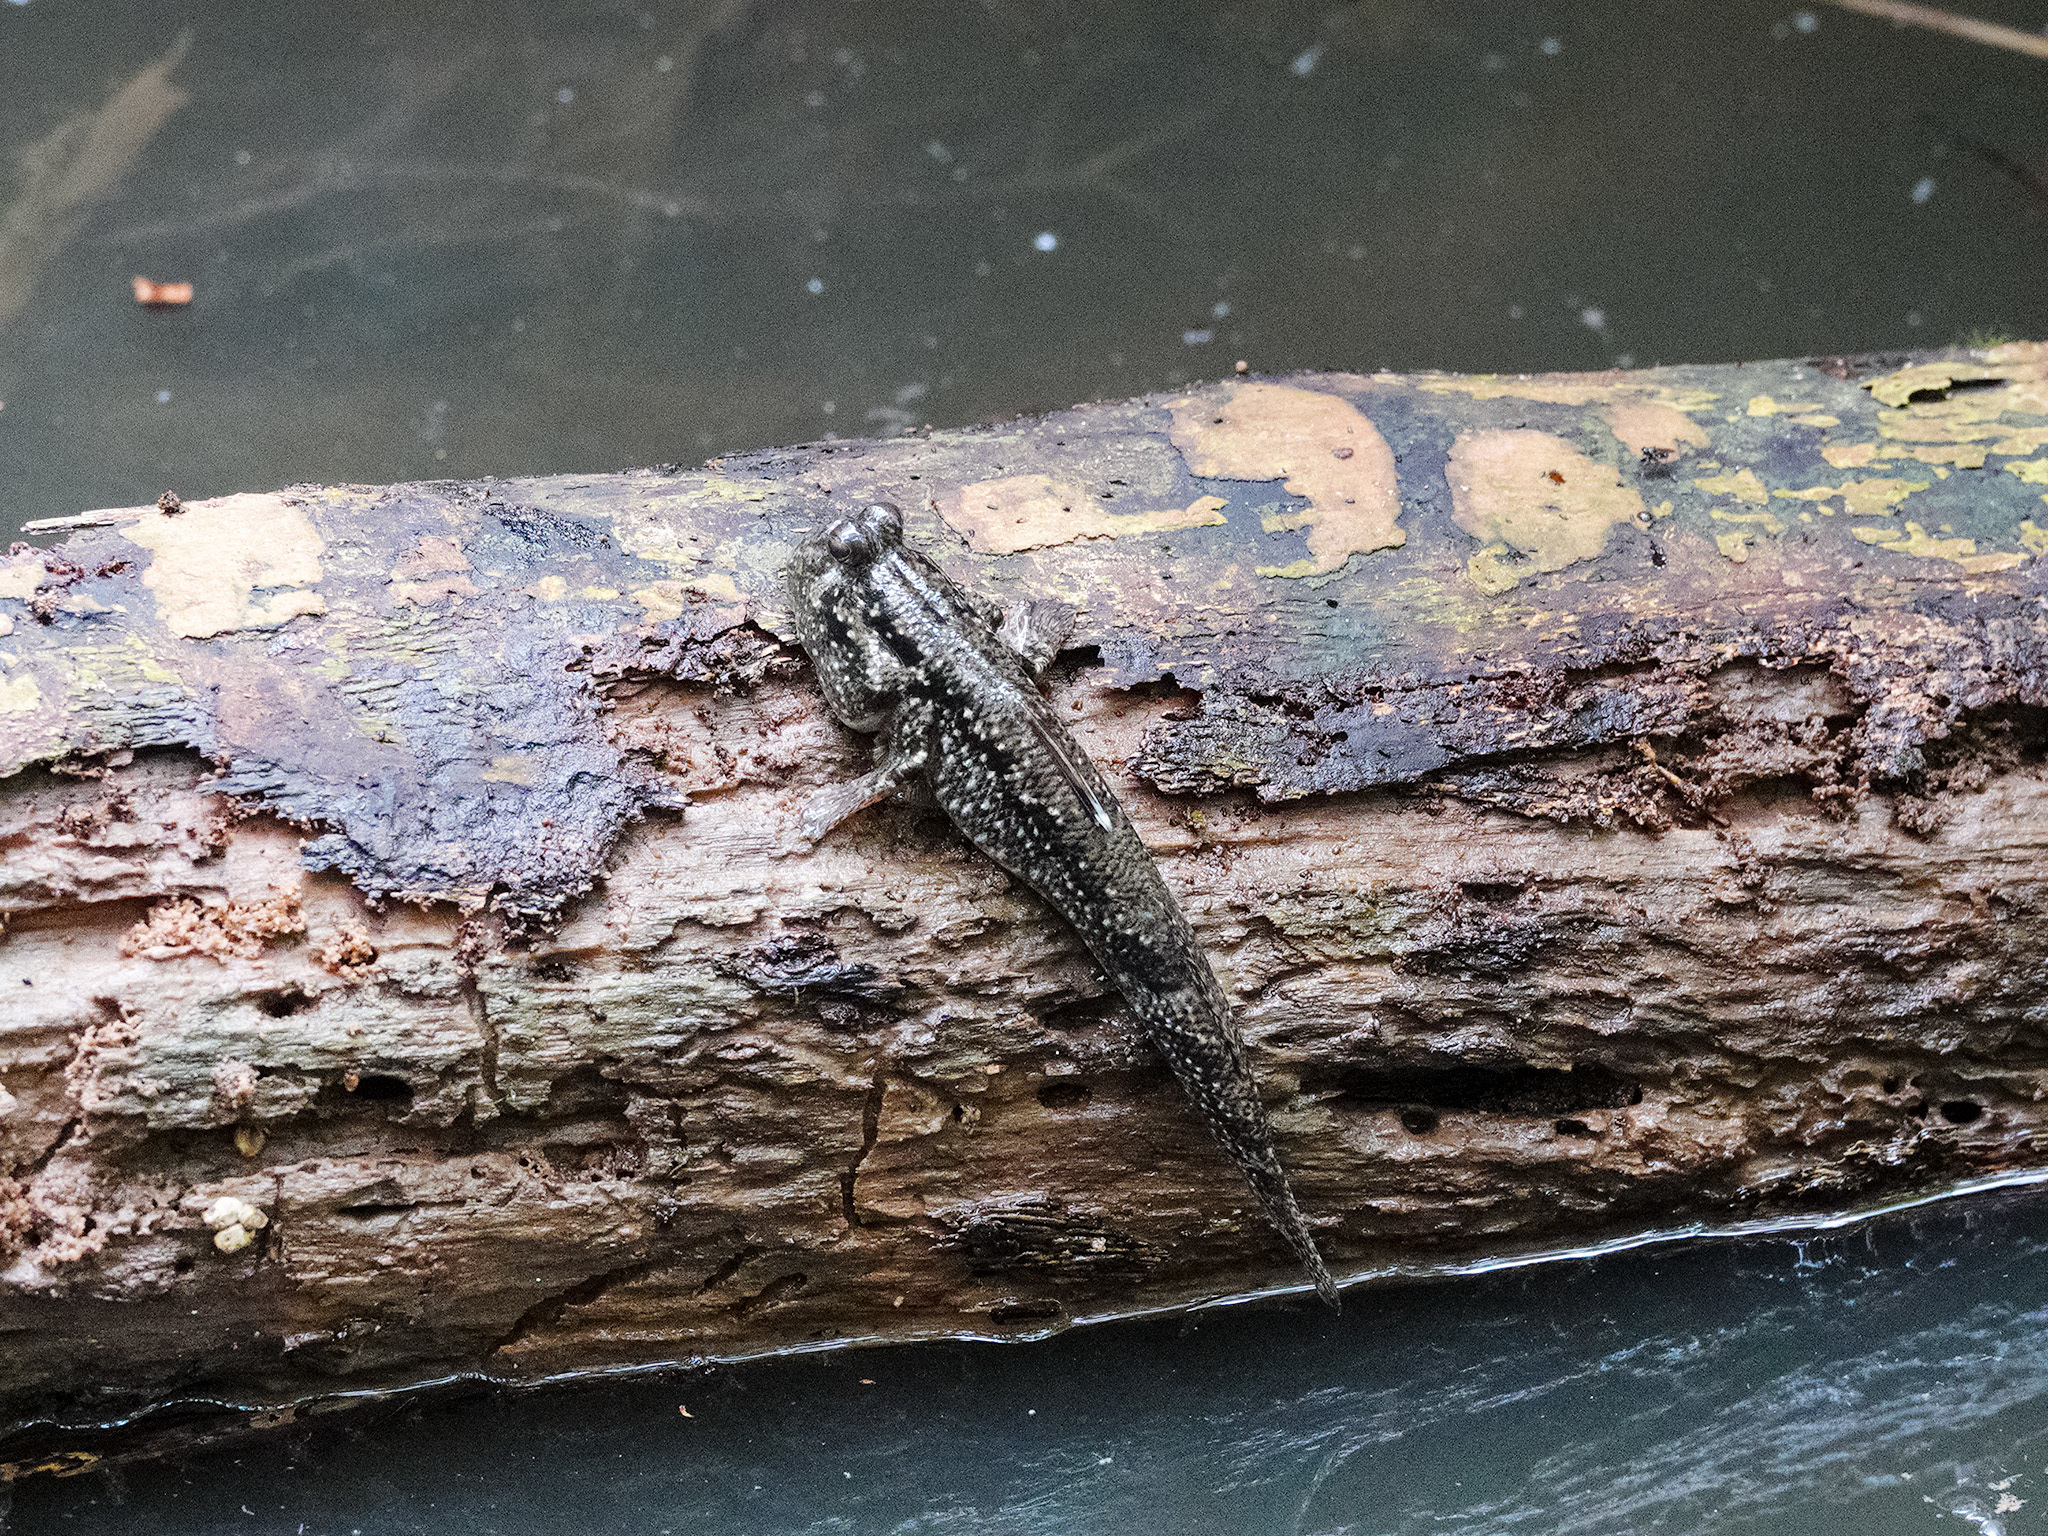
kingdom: Animalia
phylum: Chordata
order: Perciformes
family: Gobiidae
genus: Periophthalmus
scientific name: Periophthalmus walailakae
